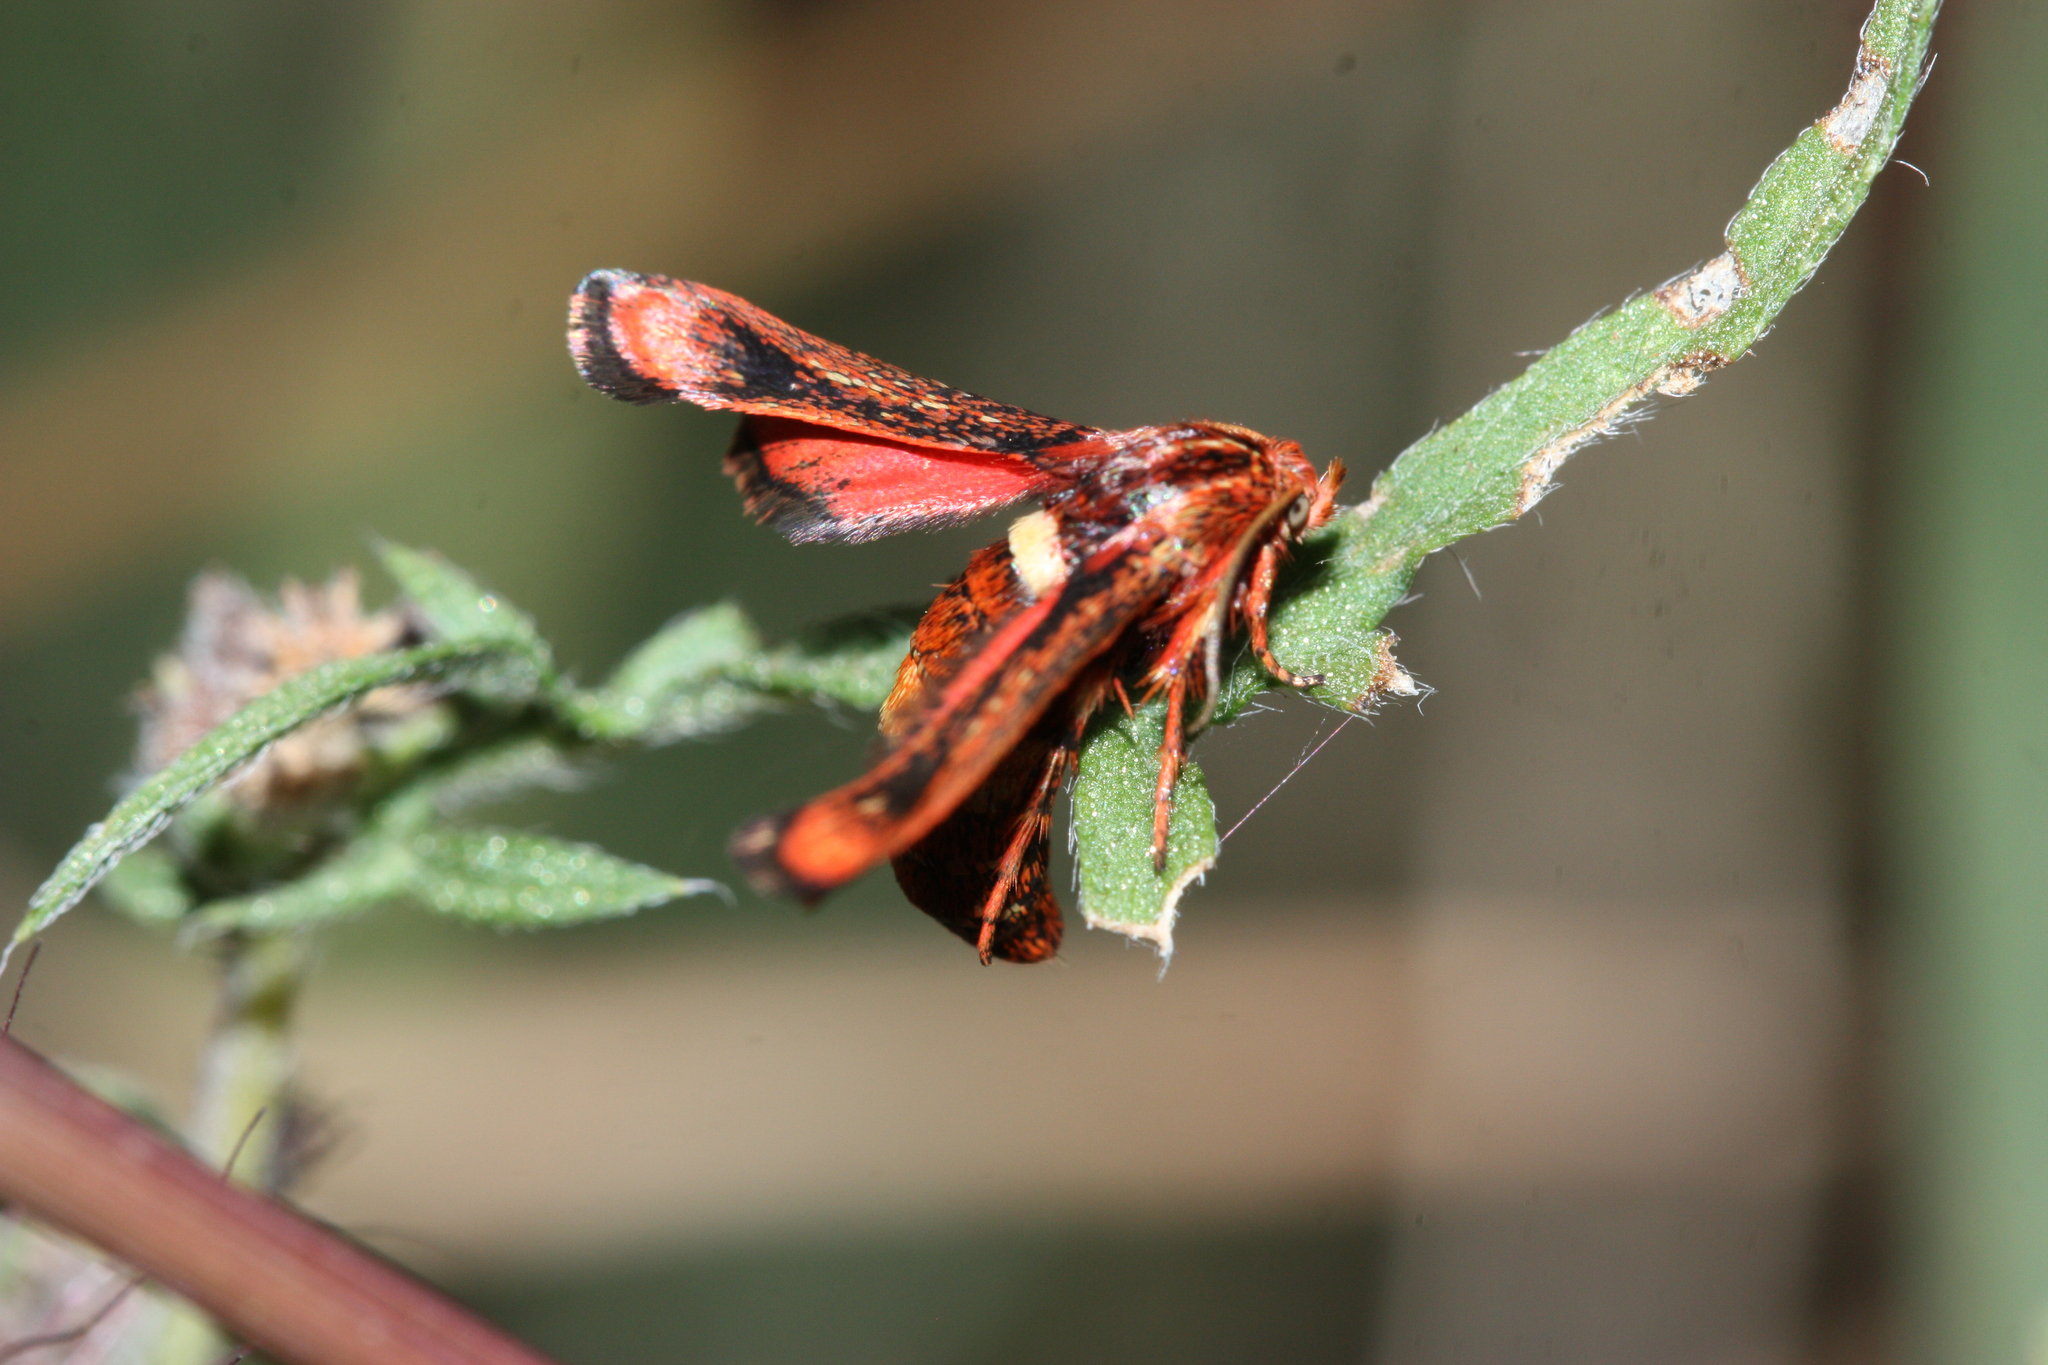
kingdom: Animalia
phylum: Arthropoda
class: Insecta
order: Lepidoptera
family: Sesiidae
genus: Zenodoxus
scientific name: Zenodoxus rubens
